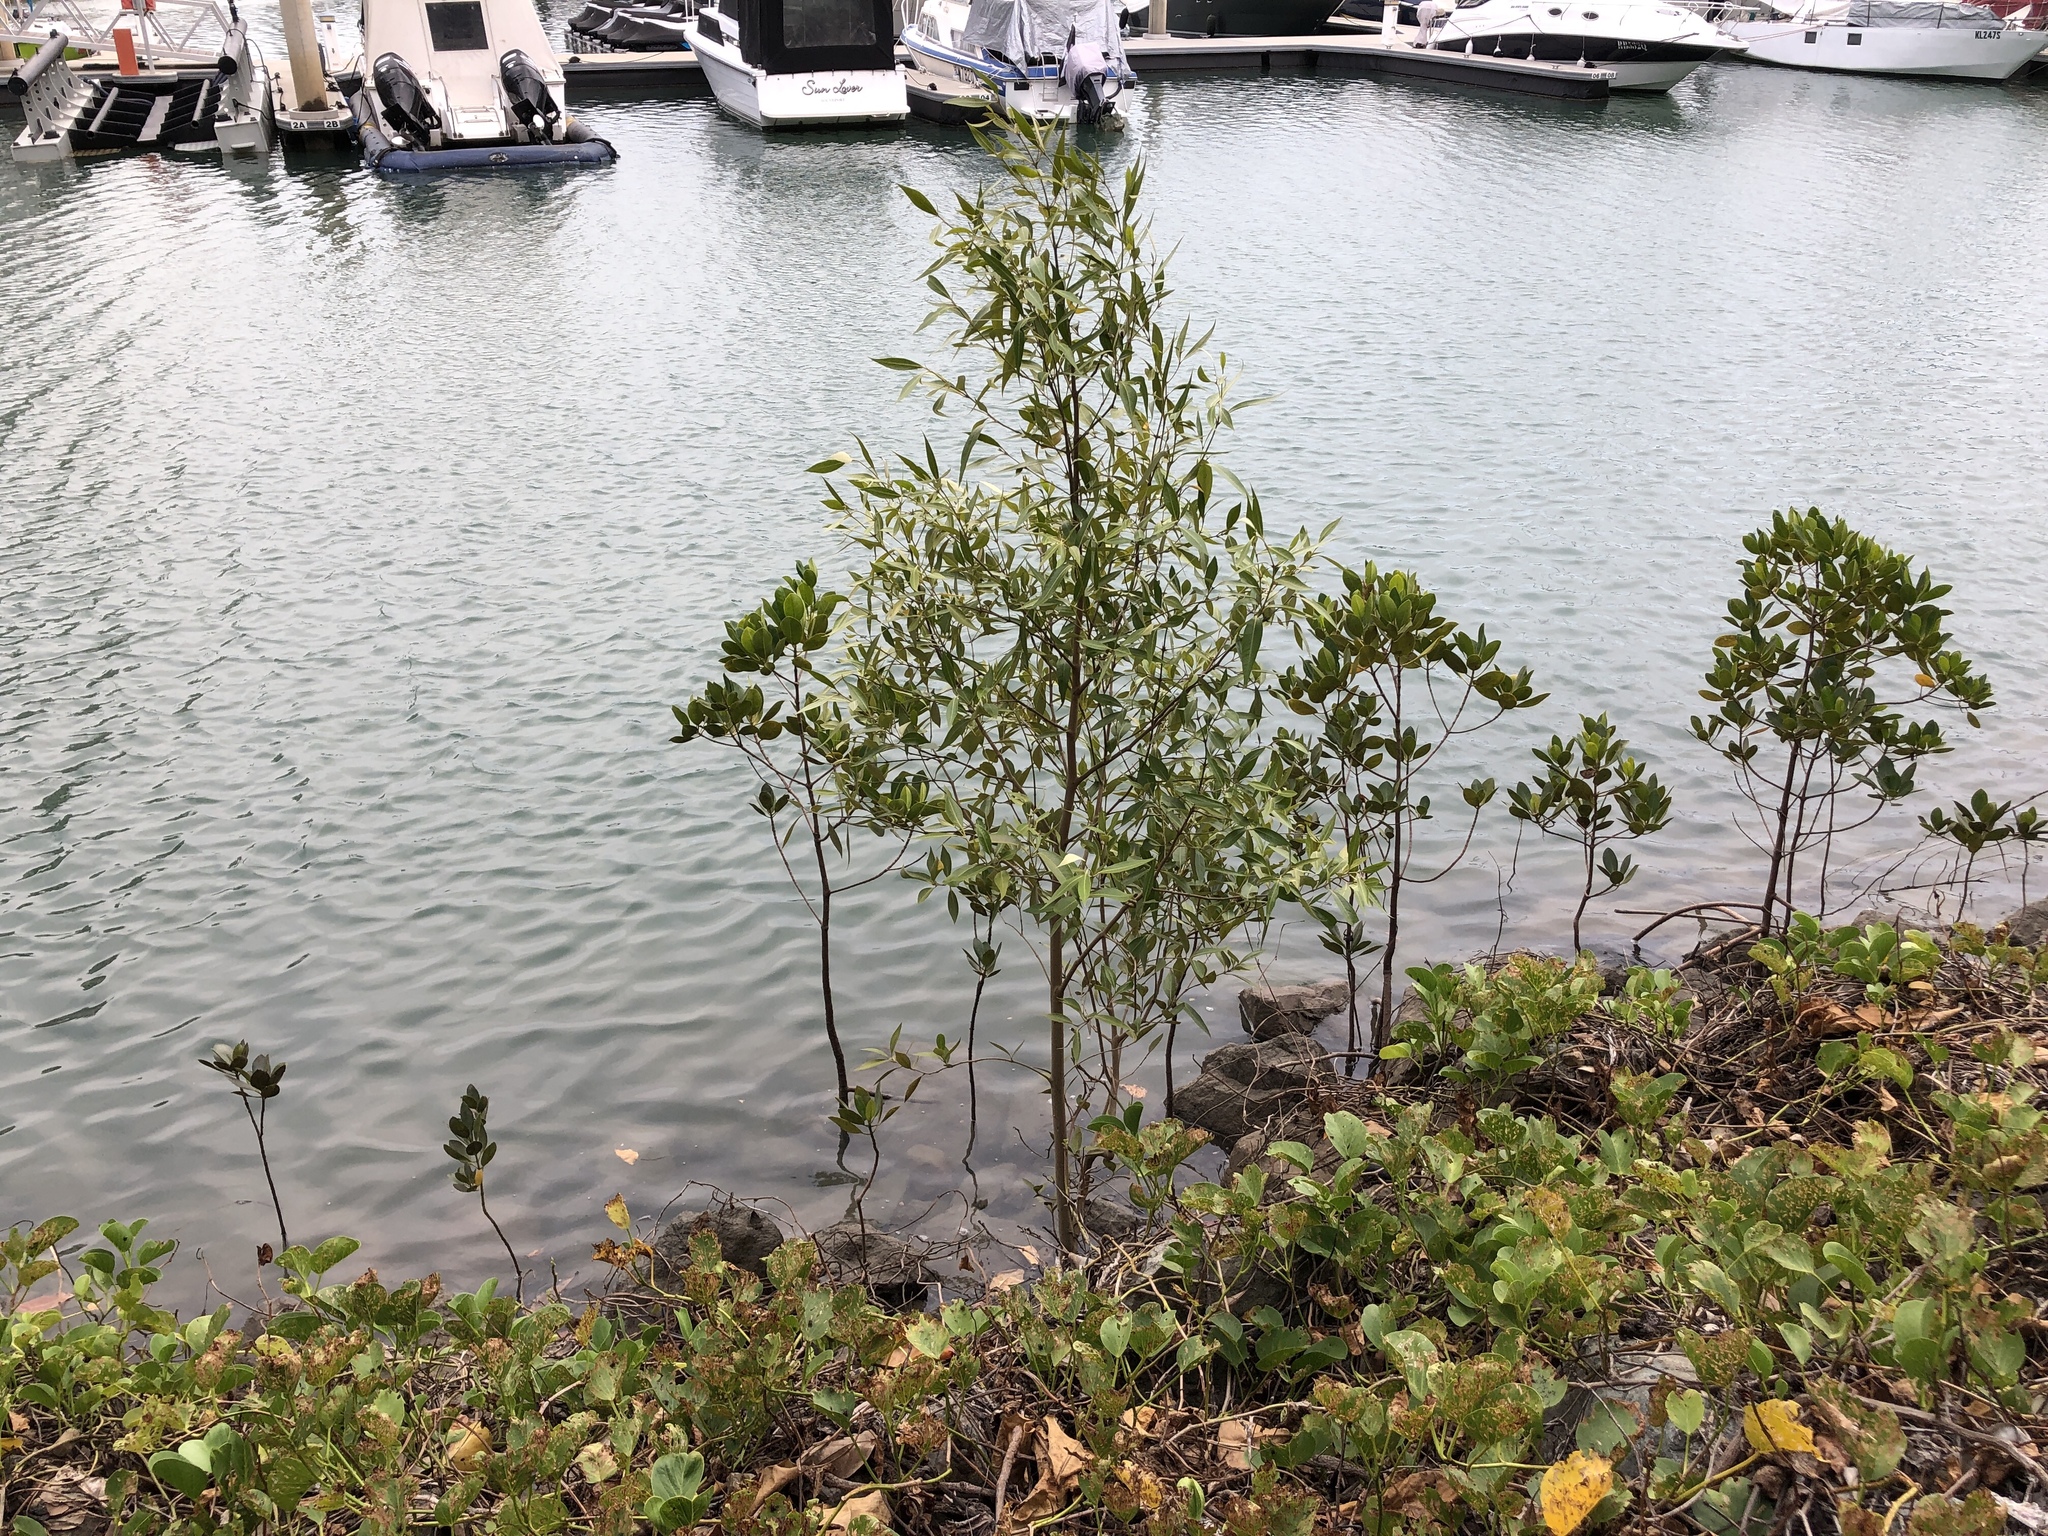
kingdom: Plantae
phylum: Tracheophyta
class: Magnoliopsida
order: Lamiales
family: Acanthaceae
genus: Avicennia
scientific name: Avicennia marina
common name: Gray mangrove
